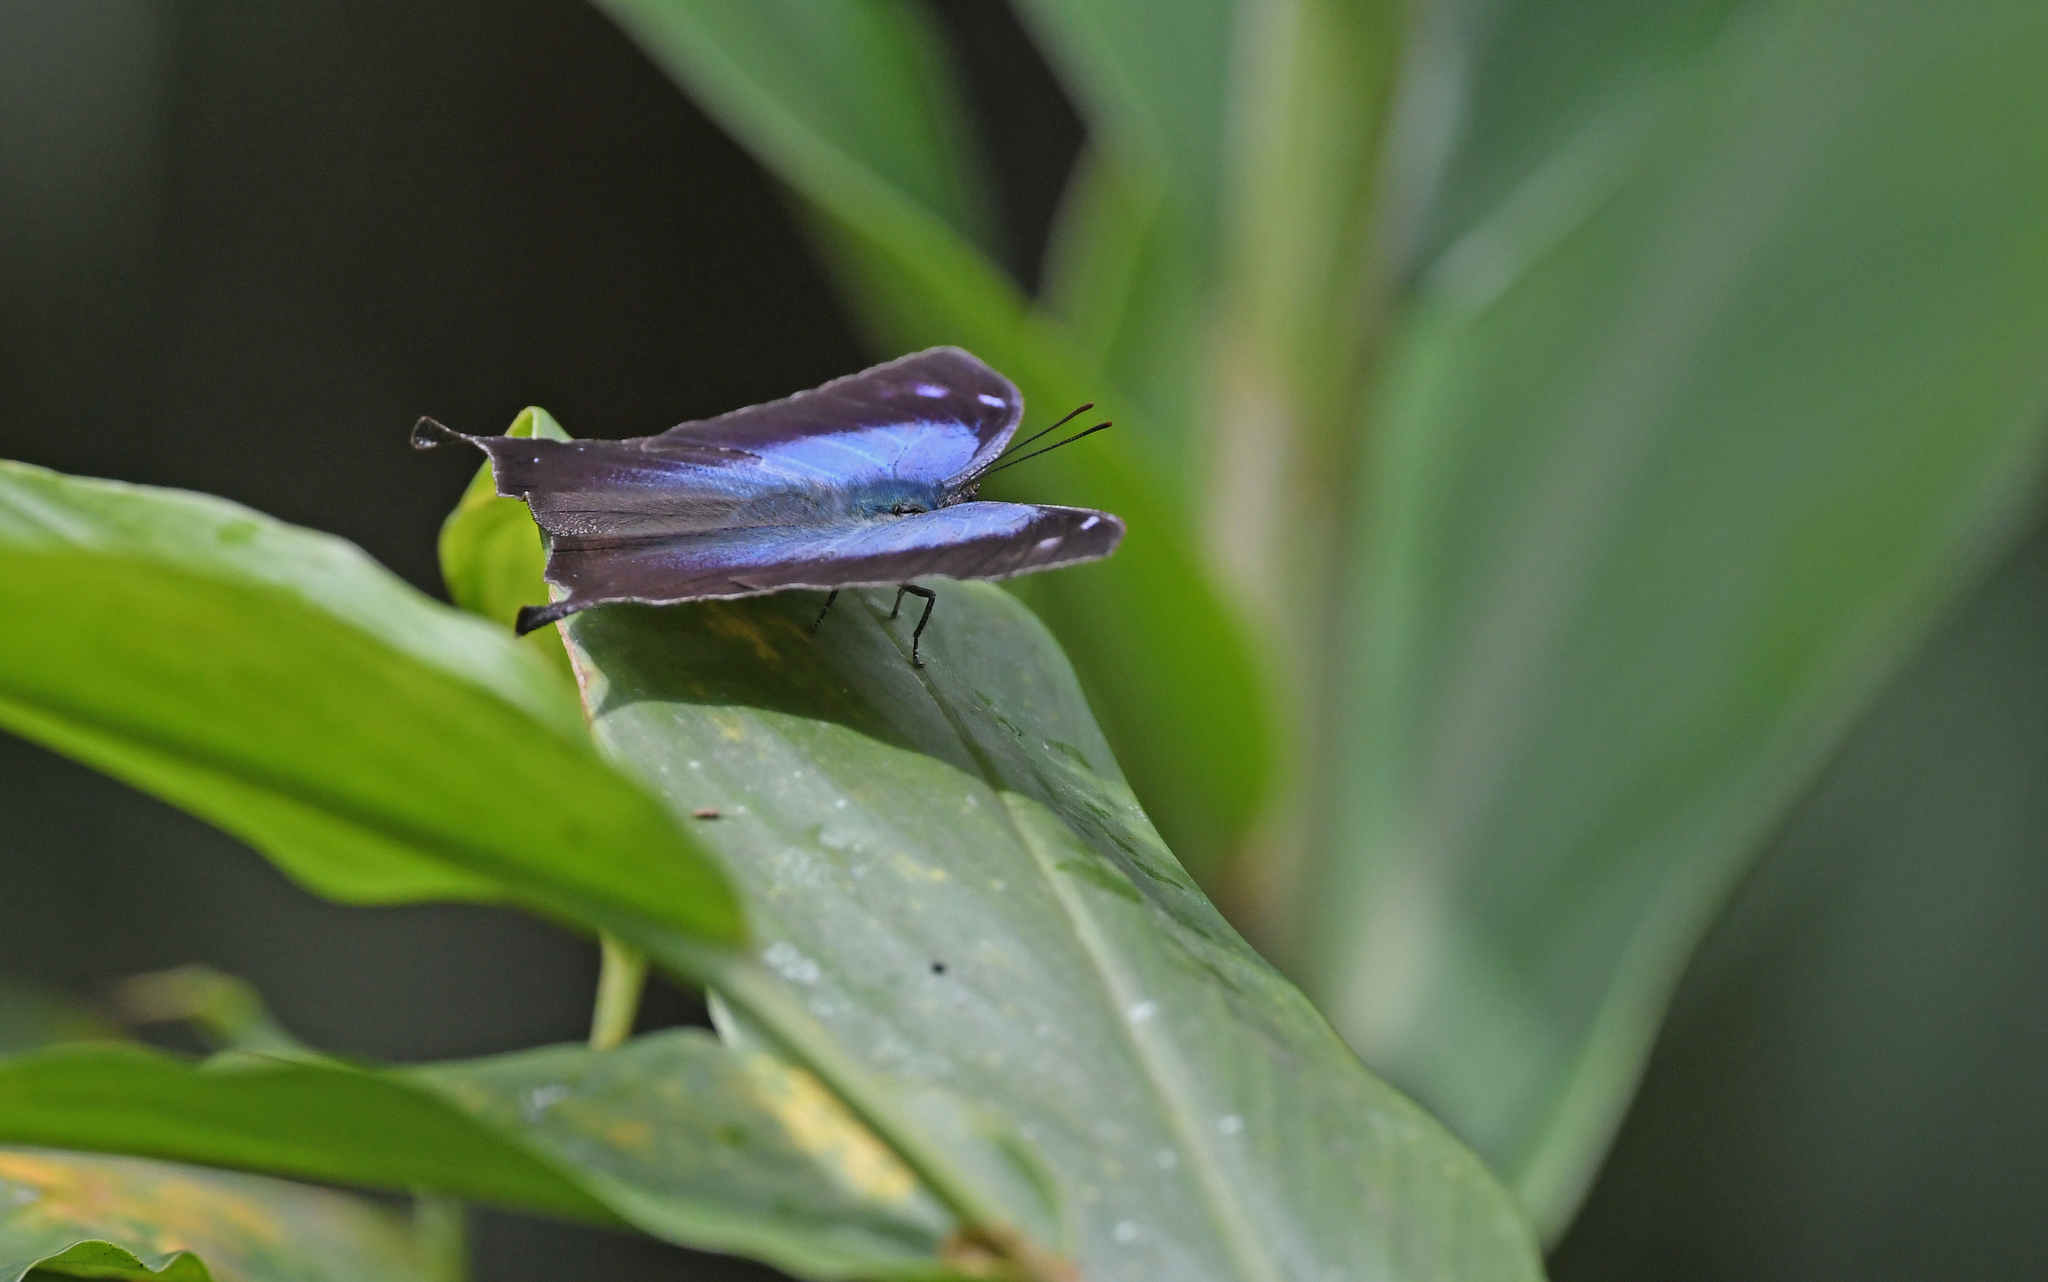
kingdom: Animalia
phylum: Arthropoda
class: Insecta
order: Lepidoptera
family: Nymphalidae
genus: Memphis
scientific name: Memphis
